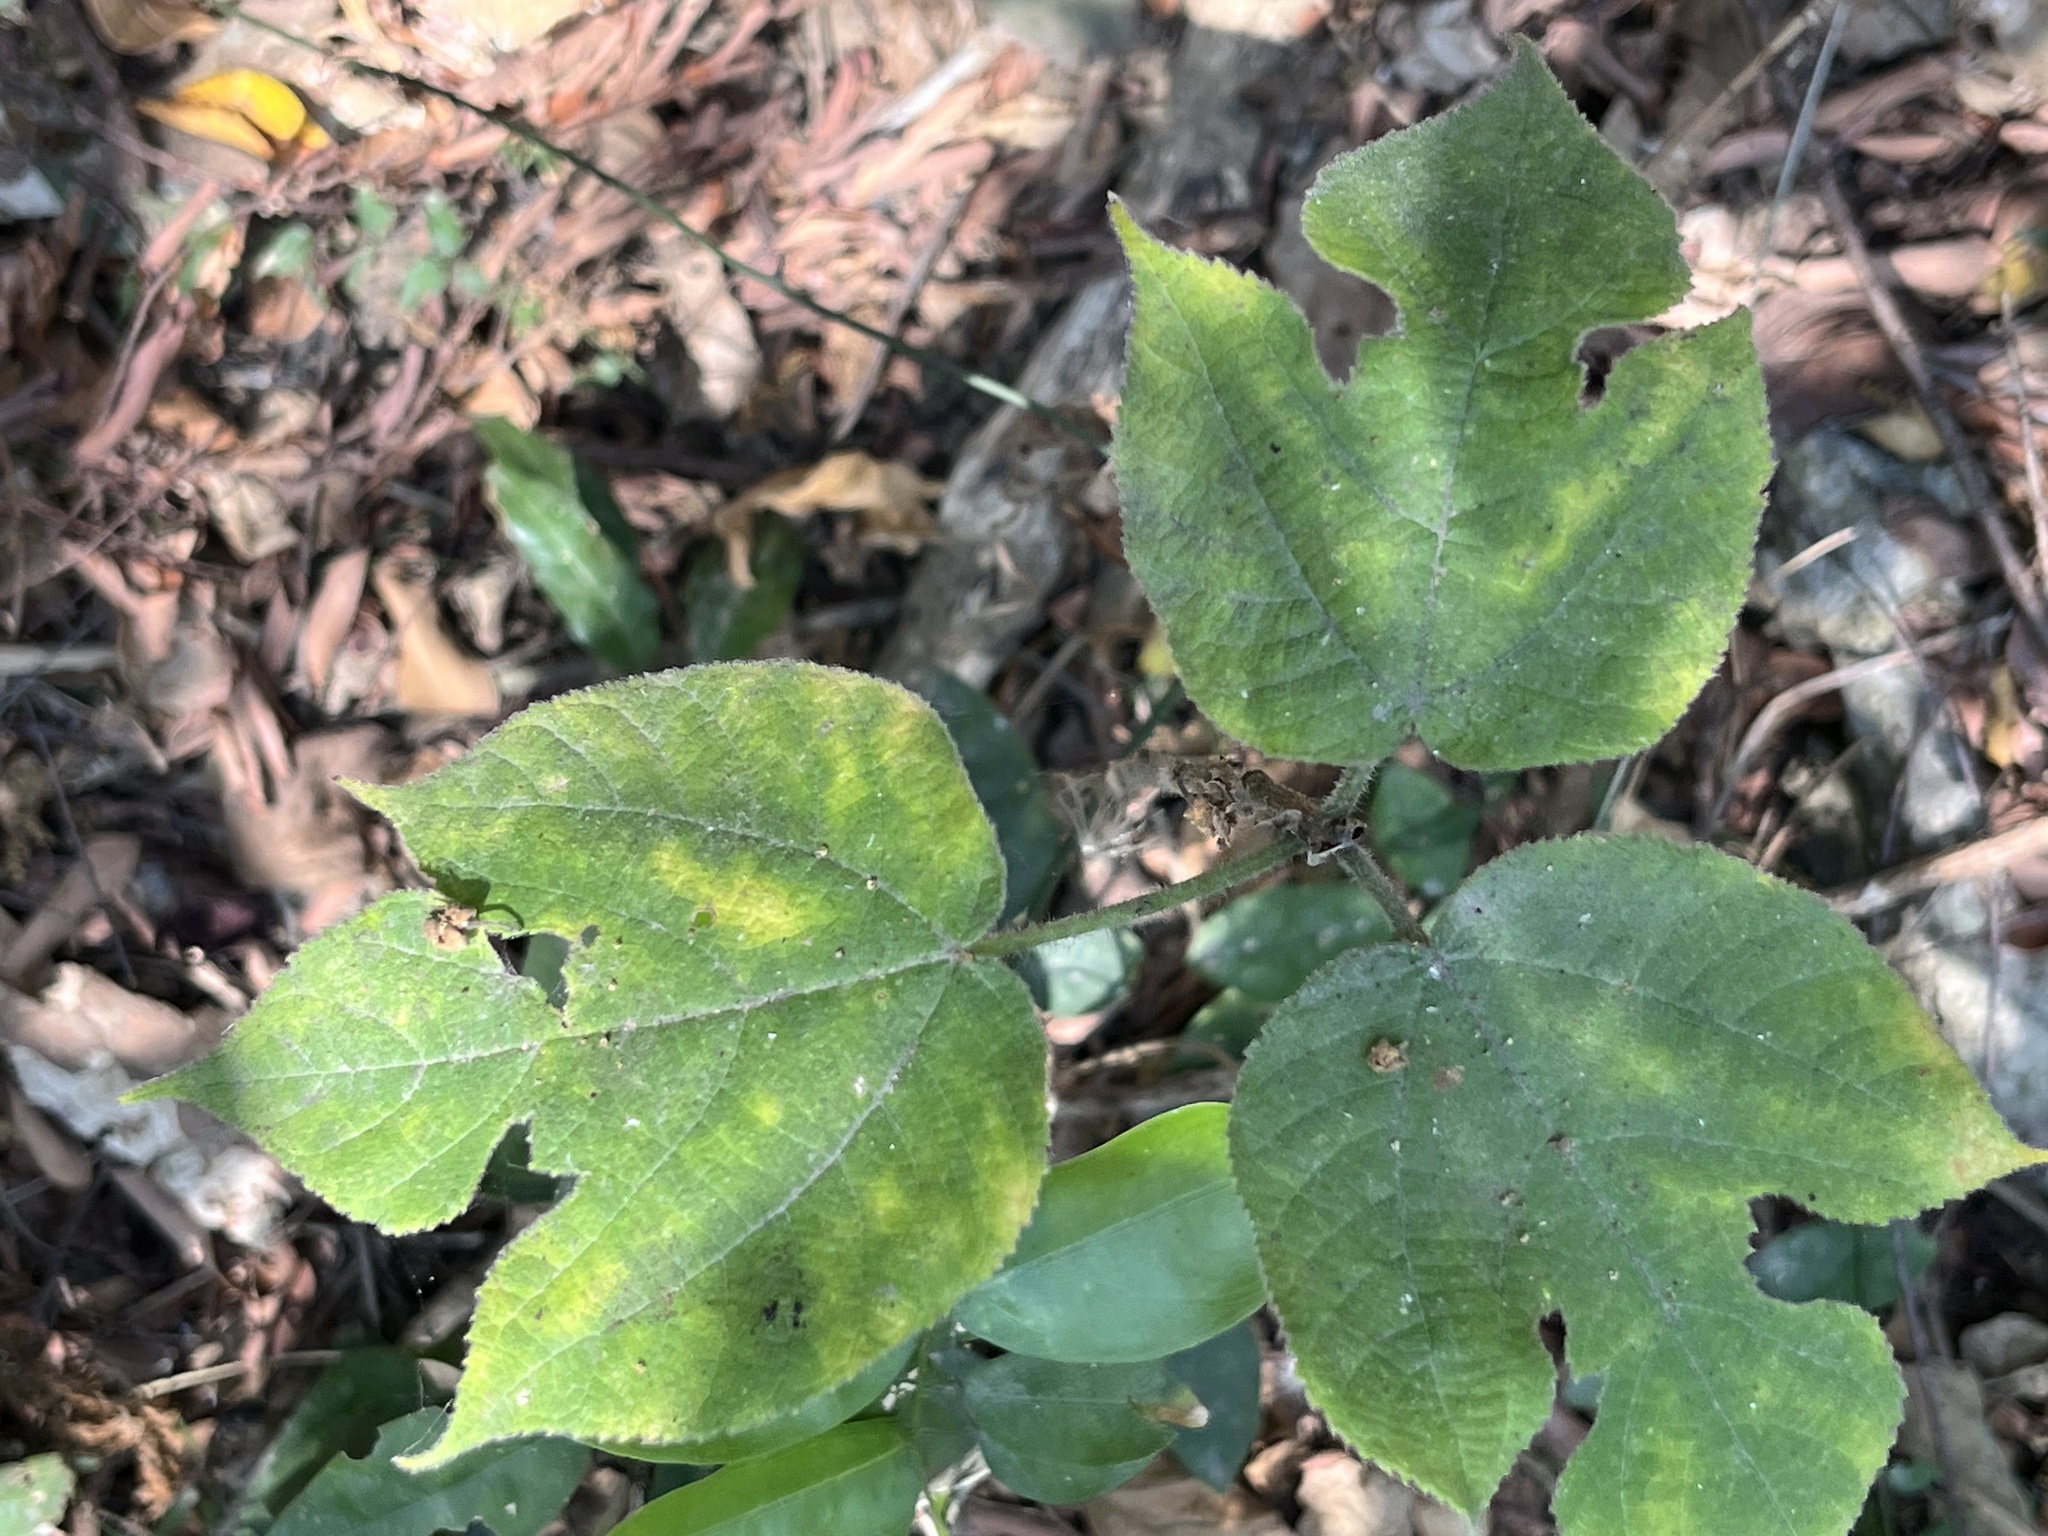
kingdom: Plantae
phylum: Tracheophyta
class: Magnoliopsida
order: Rosales
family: Moraceae
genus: Broussonetia
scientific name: Broussonetia papyrifera
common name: Paper mulberry
